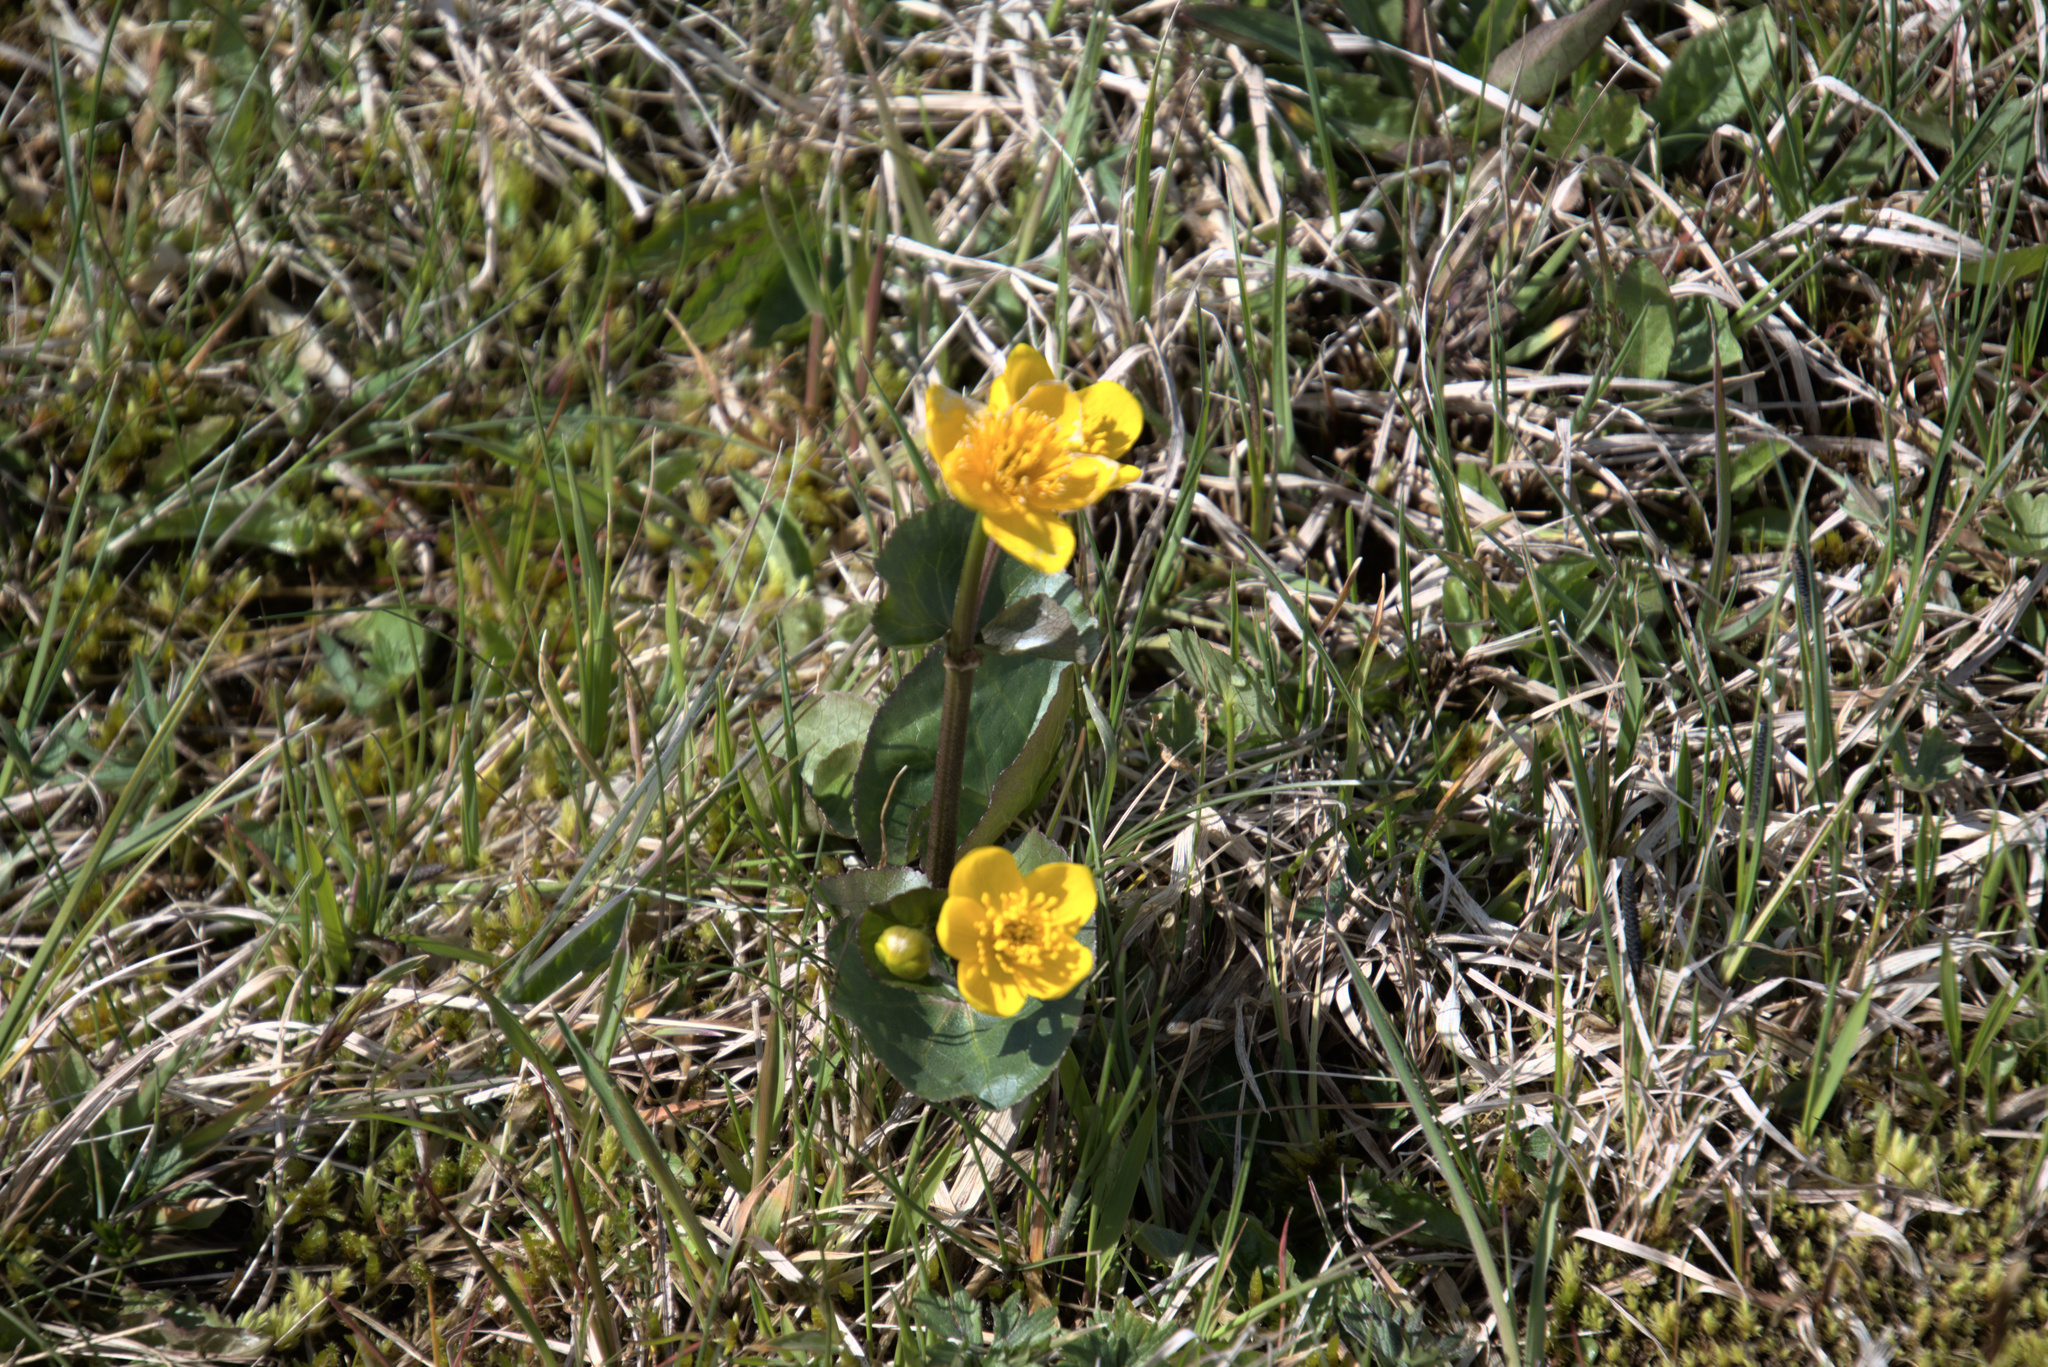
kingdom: Plantae
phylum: Tracheophyta
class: Magnoliopsida
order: Ranunculales
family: Ranunculaceae
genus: Caltha
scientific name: Caltha palustris
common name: Marsh marigold
